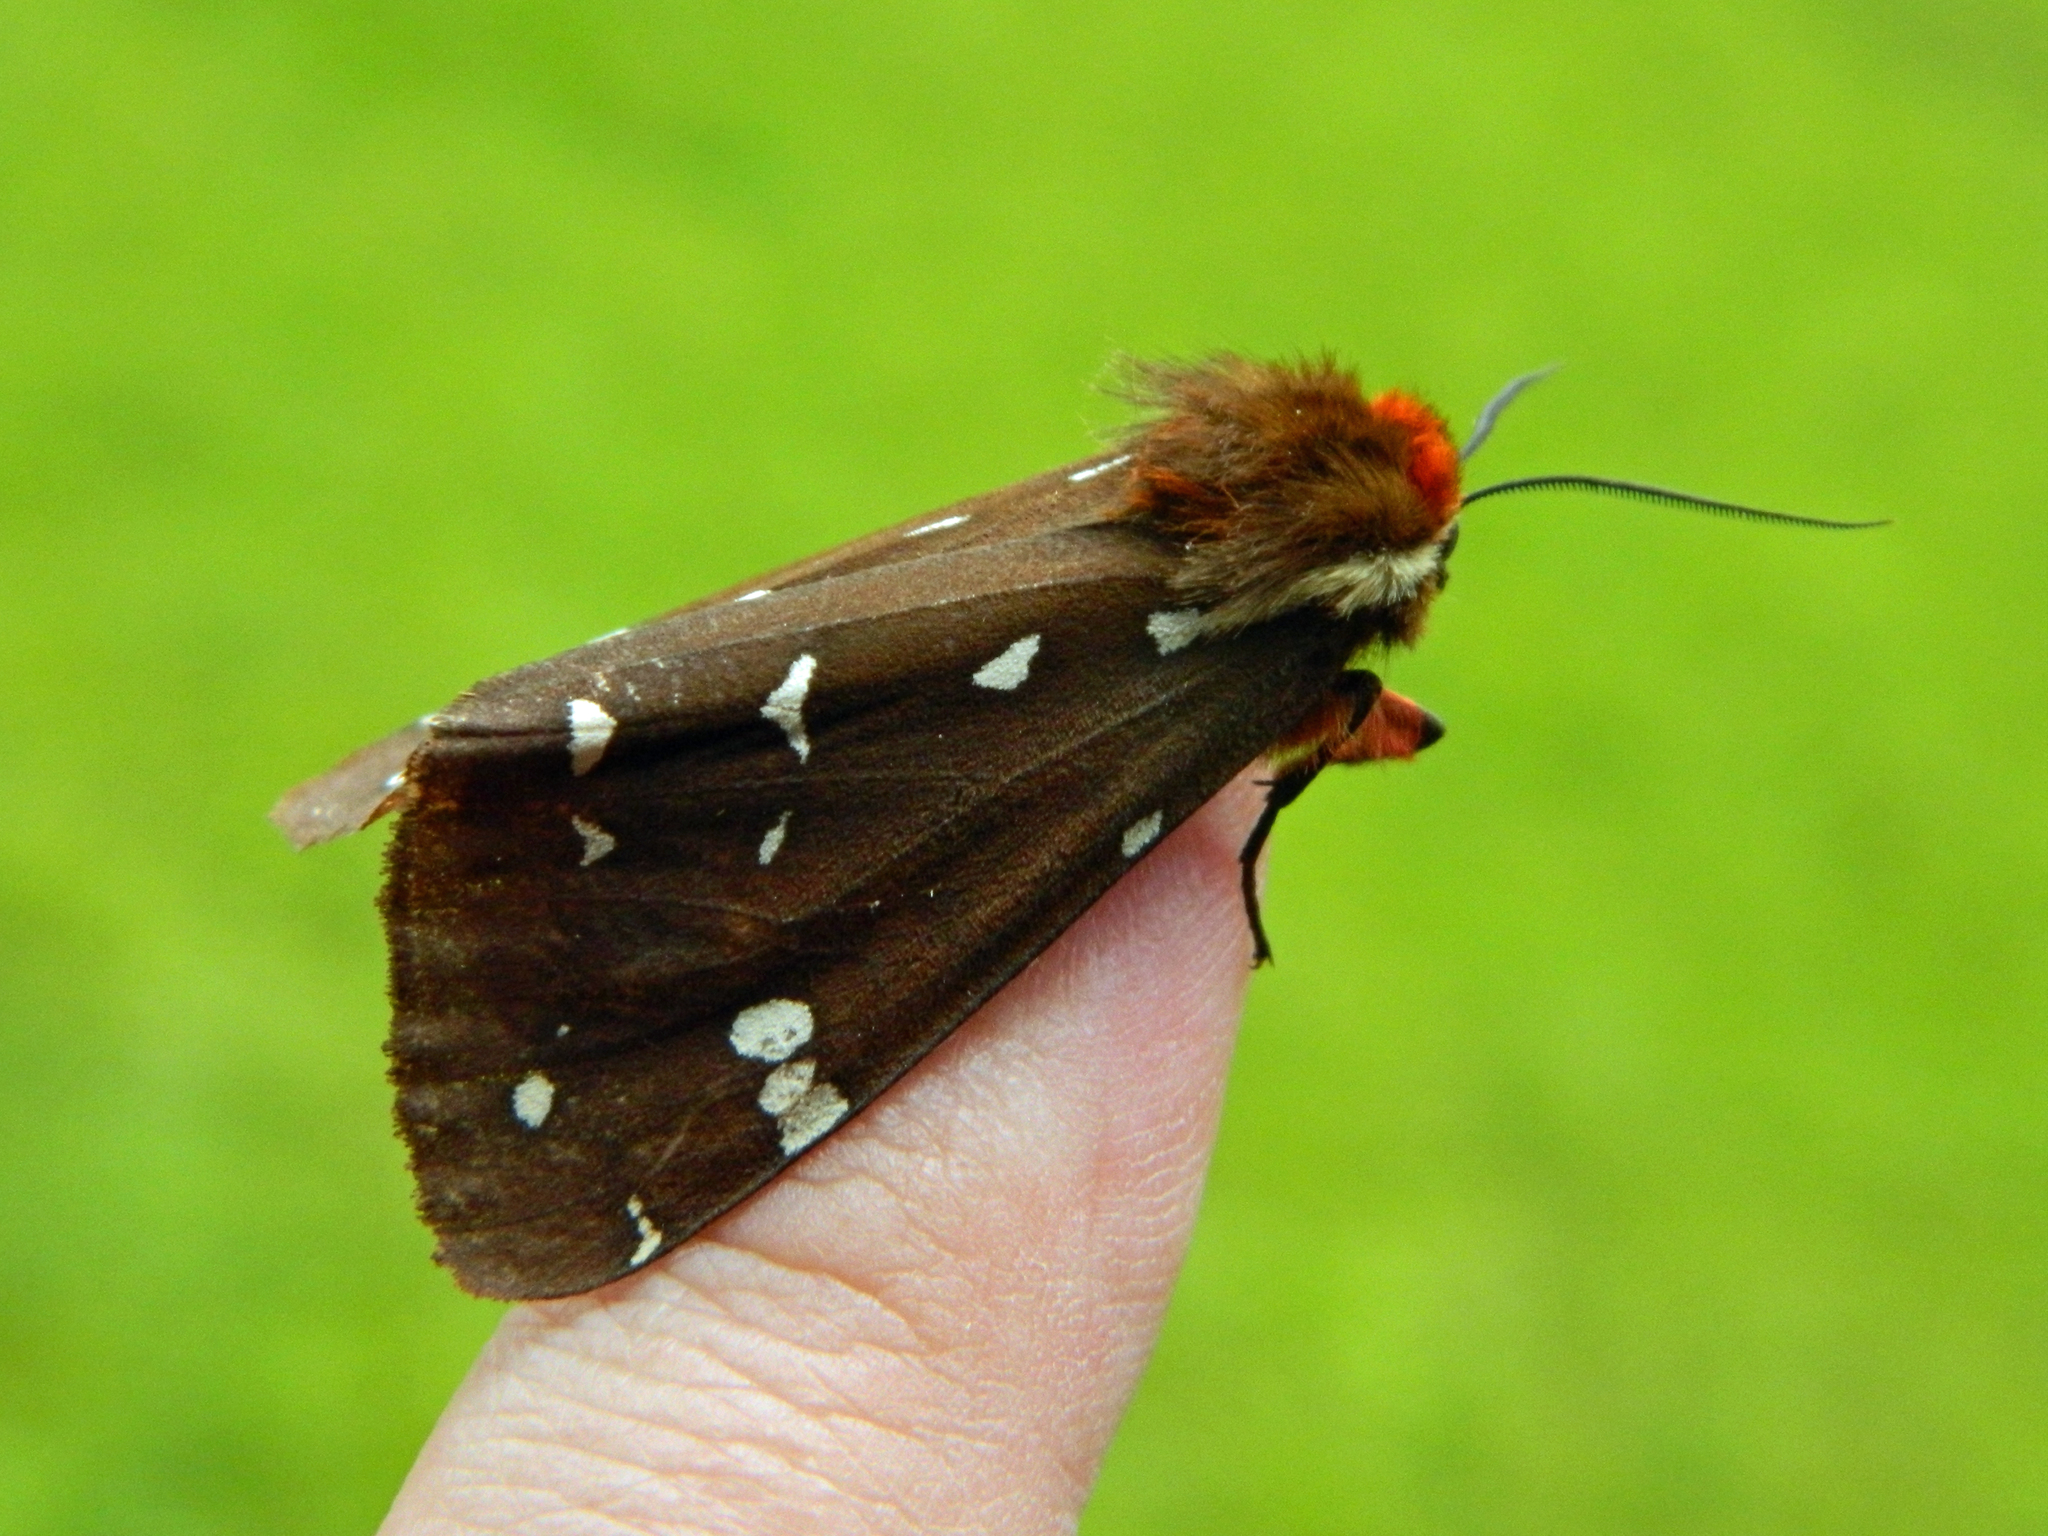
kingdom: Animalia
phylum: Arthropoda
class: Insecta
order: Lepidoptera
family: Erebidae
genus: Arctia
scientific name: Arctia parthenos
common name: St. lawrence tiger moth
